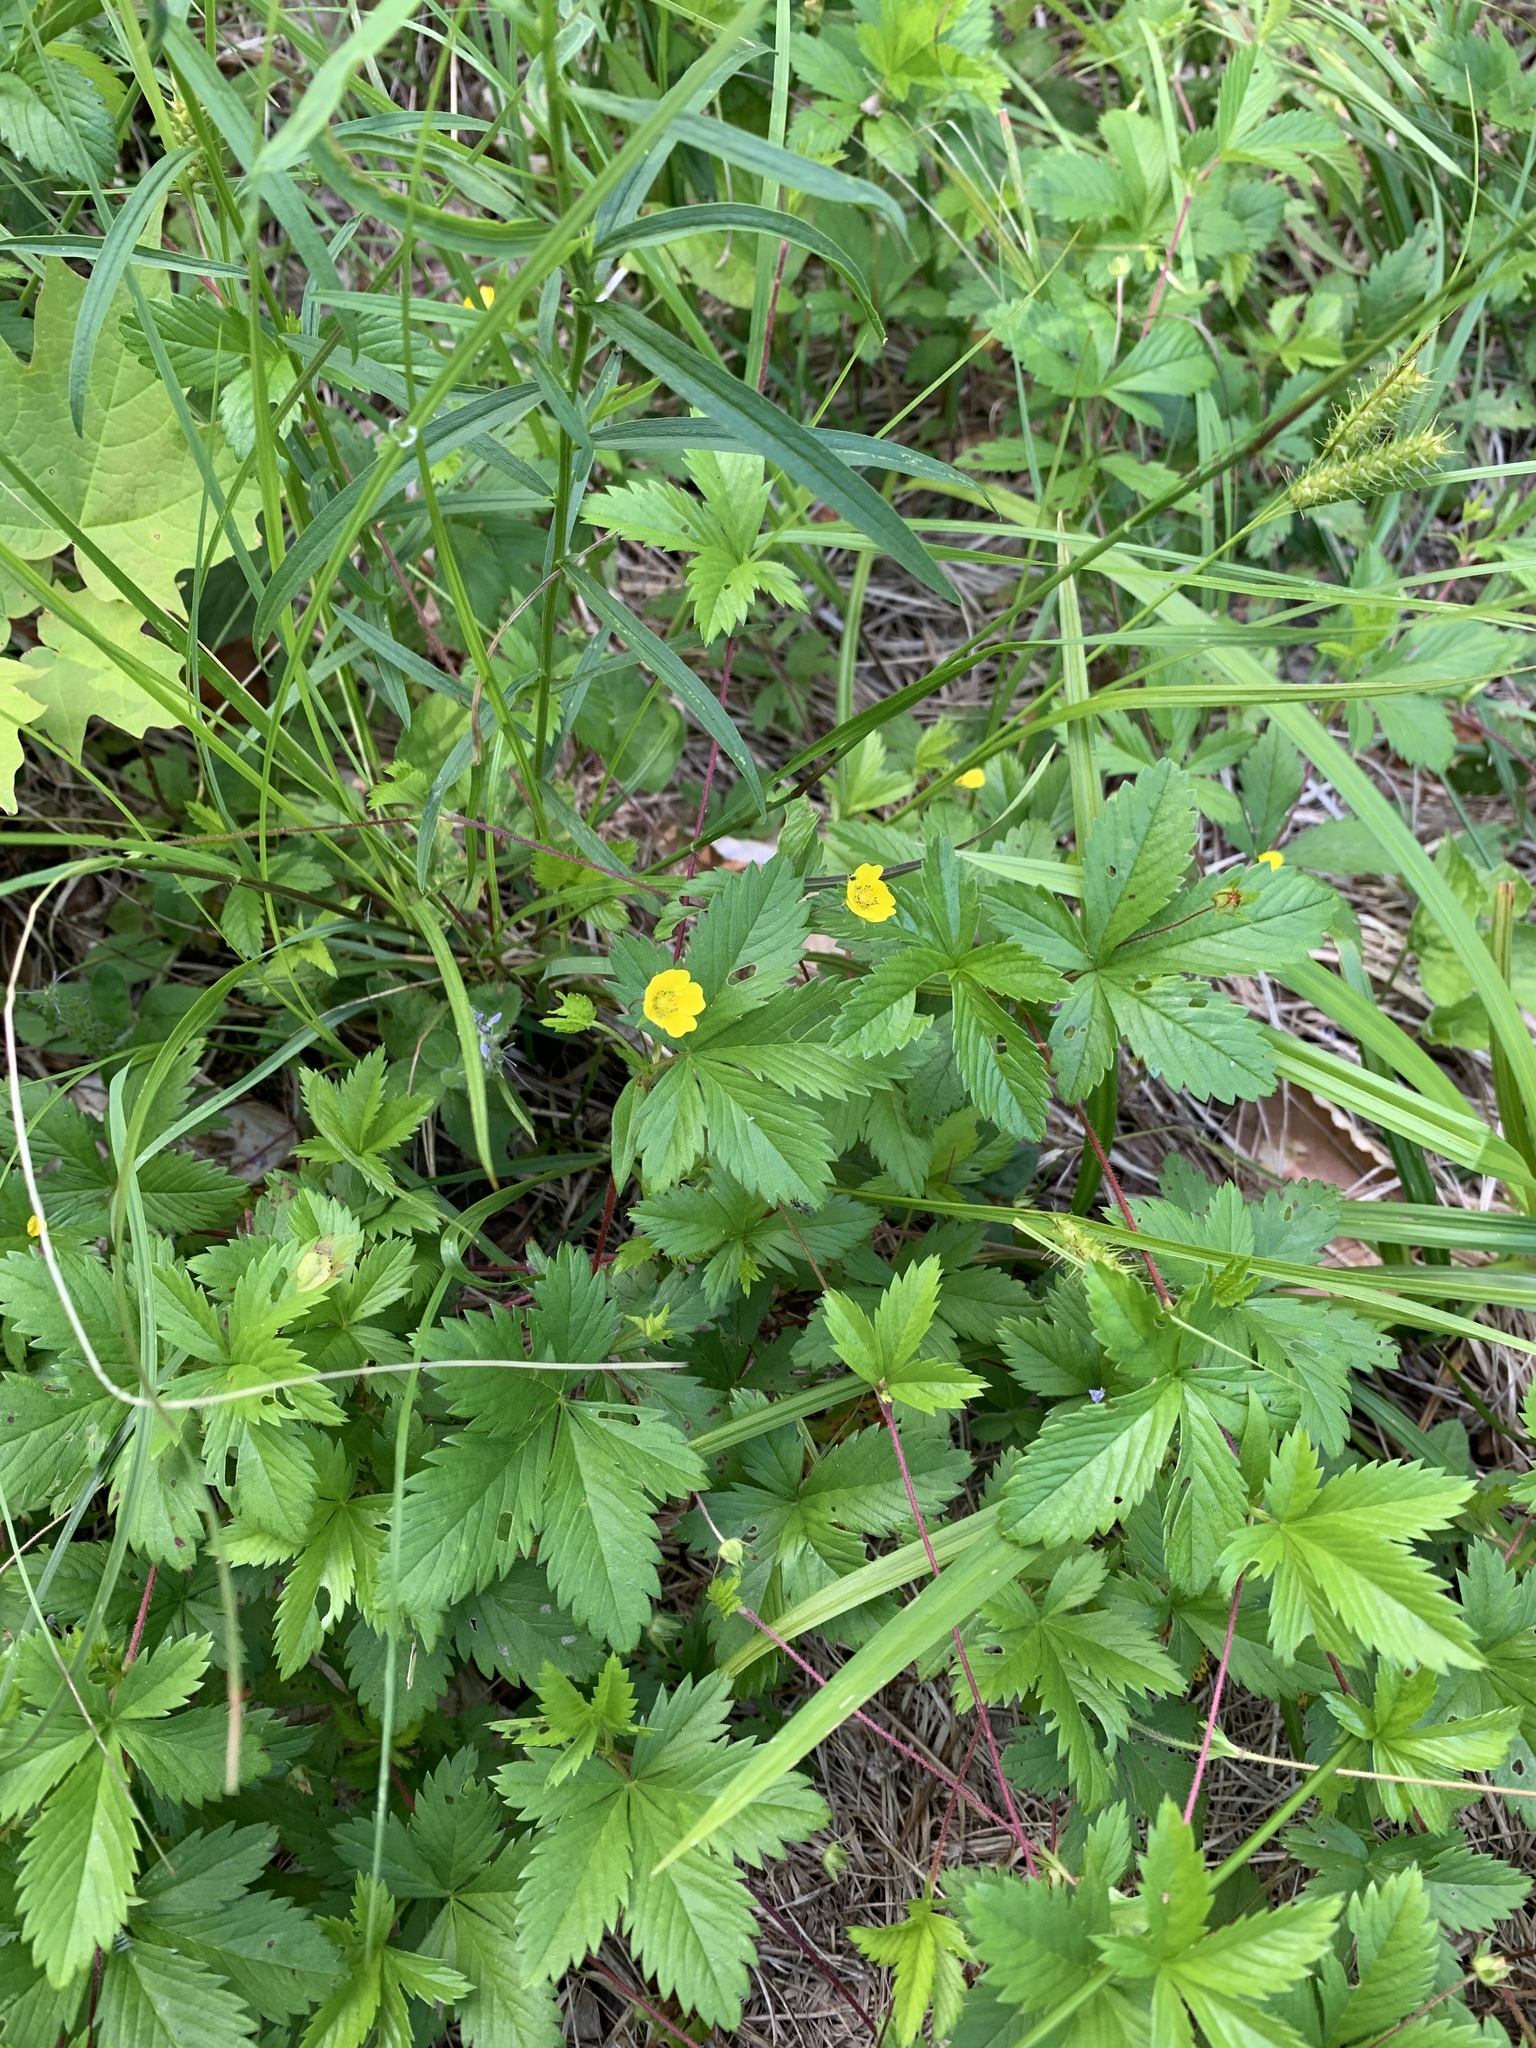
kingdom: Plantae
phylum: Tracheophyta
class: Magnoliopsida
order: Rosales
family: Rosaceae
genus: Potentilla
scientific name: Potentilla simplex
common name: Old field cinquefoil
